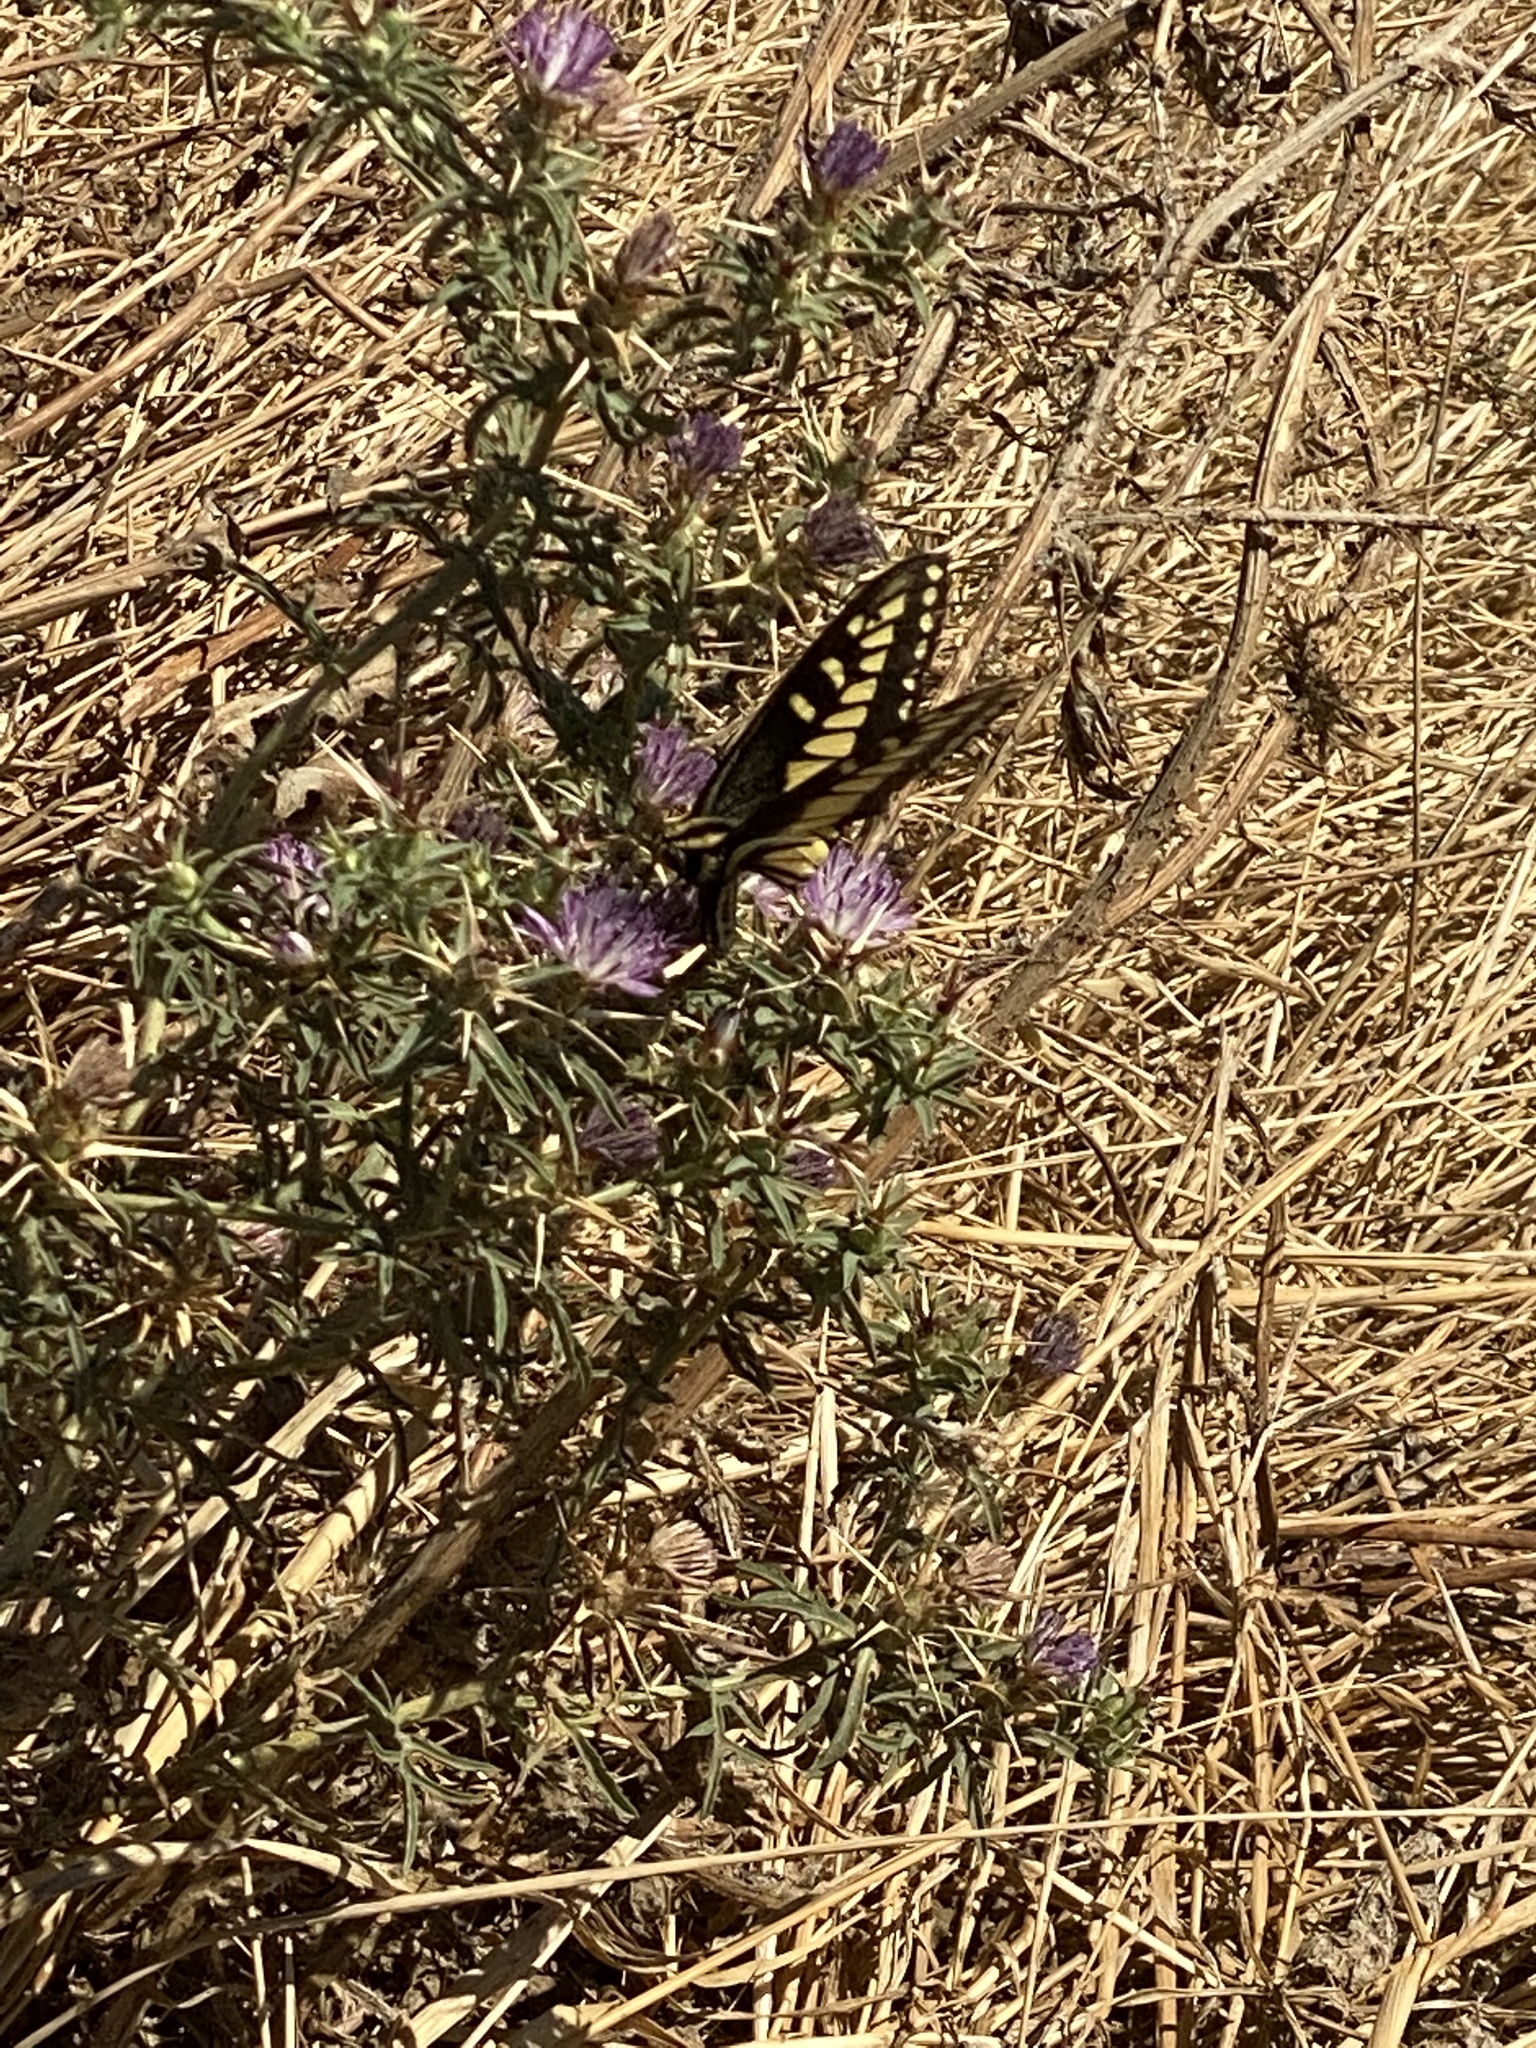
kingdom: Animalia
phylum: Arthropoda
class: Insecta
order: Lepidoptera
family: Papilionidae
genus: Papilio
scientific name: Papilio zelicaon
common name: Anise swallowtail
